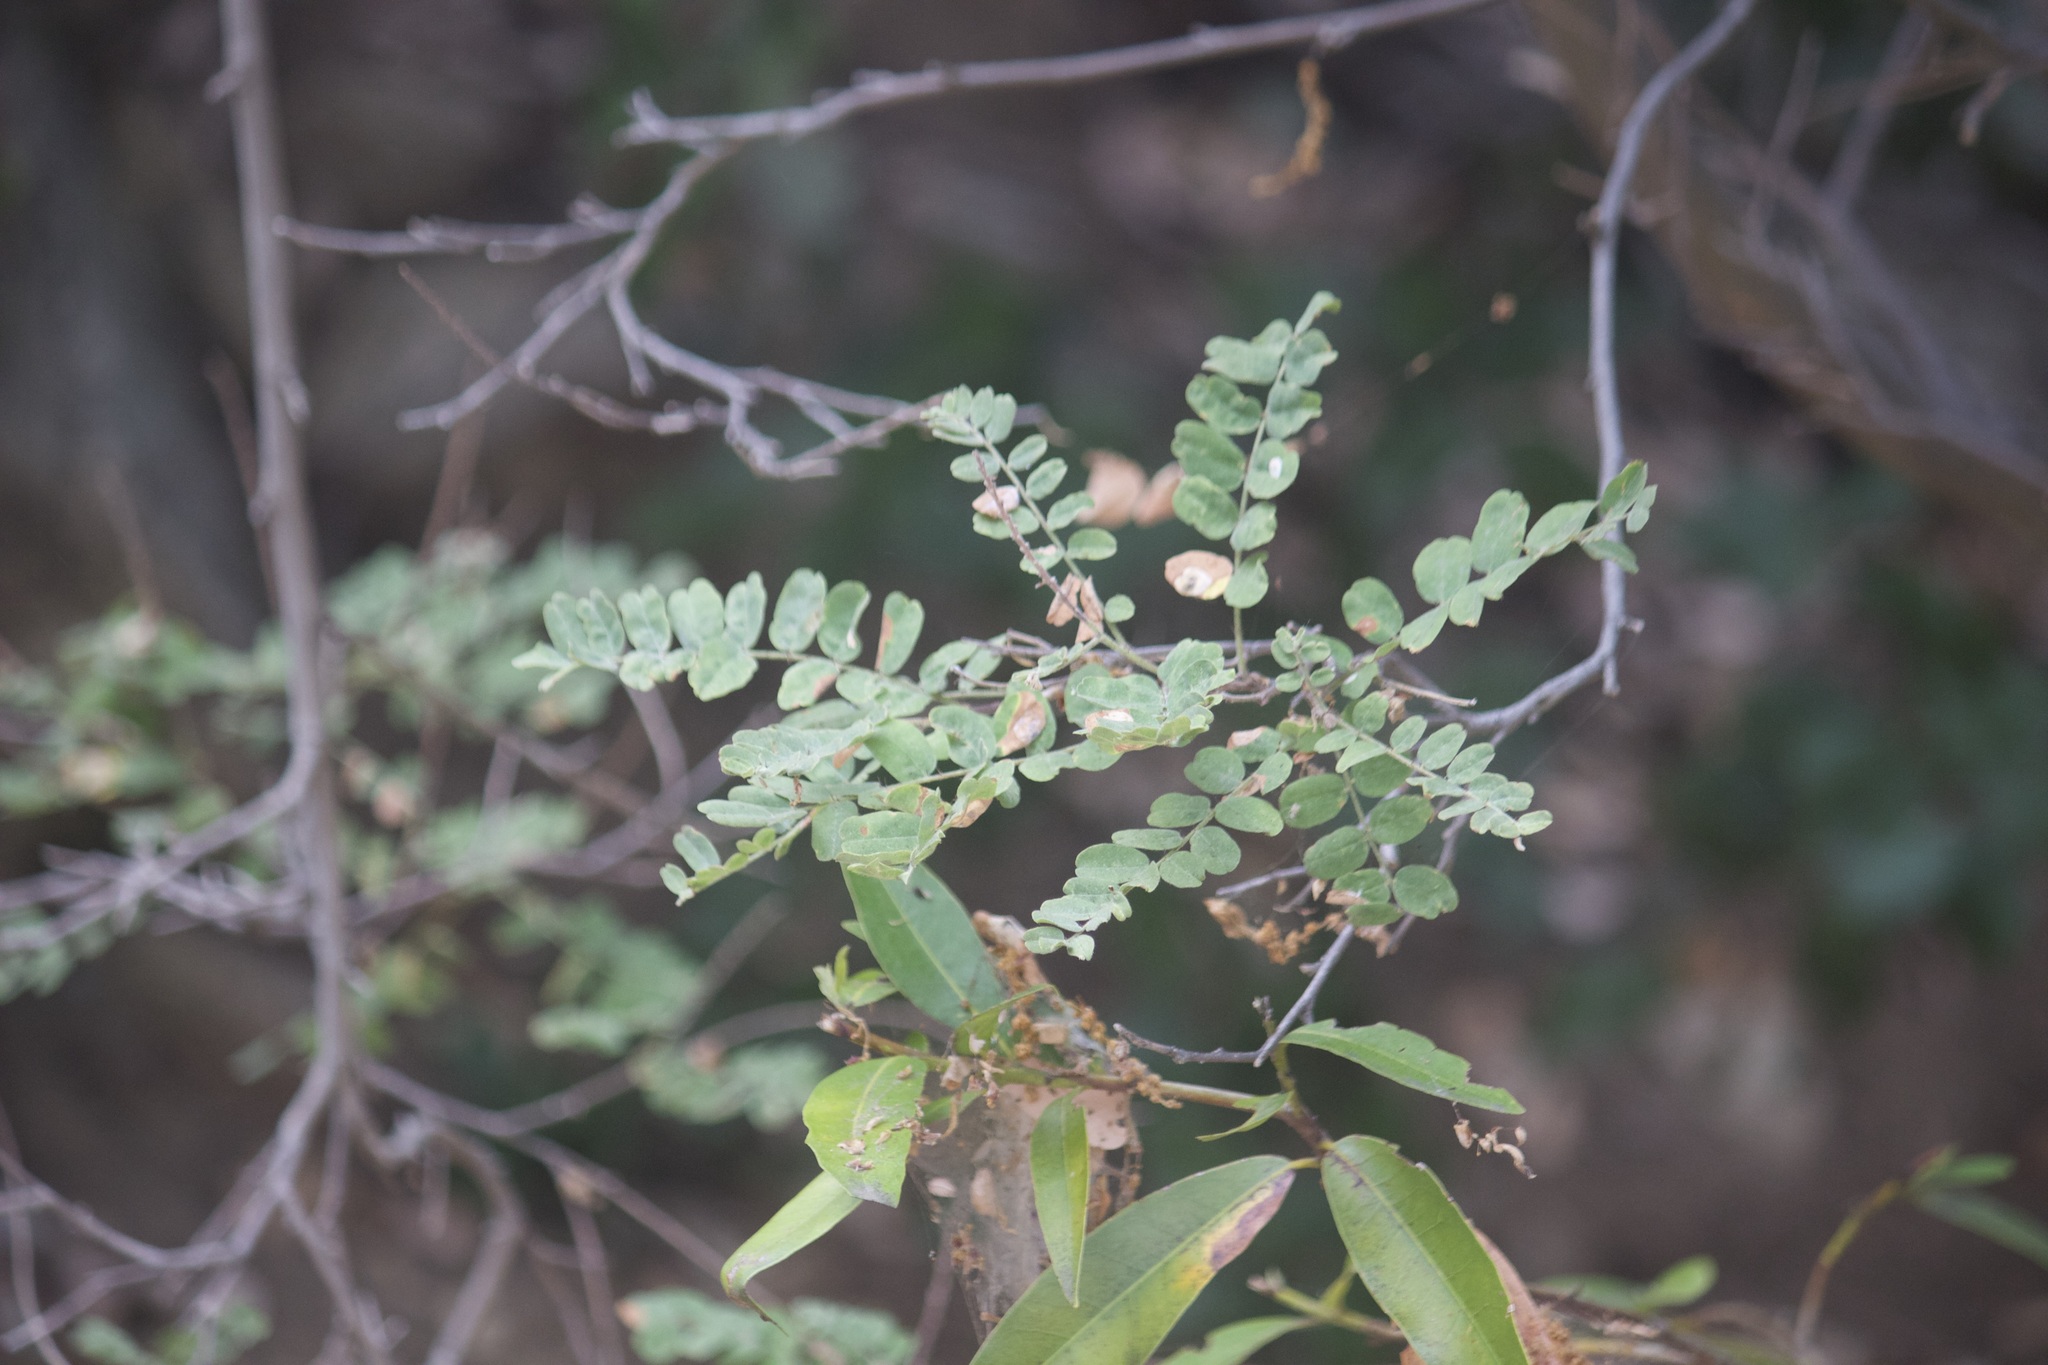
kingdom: Plantae
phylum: Tracheophyta
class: Magnoliopsida
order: Fabales
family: Fabaceae
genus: Amorpha
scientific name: Amorpha californica
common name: California indigobush
